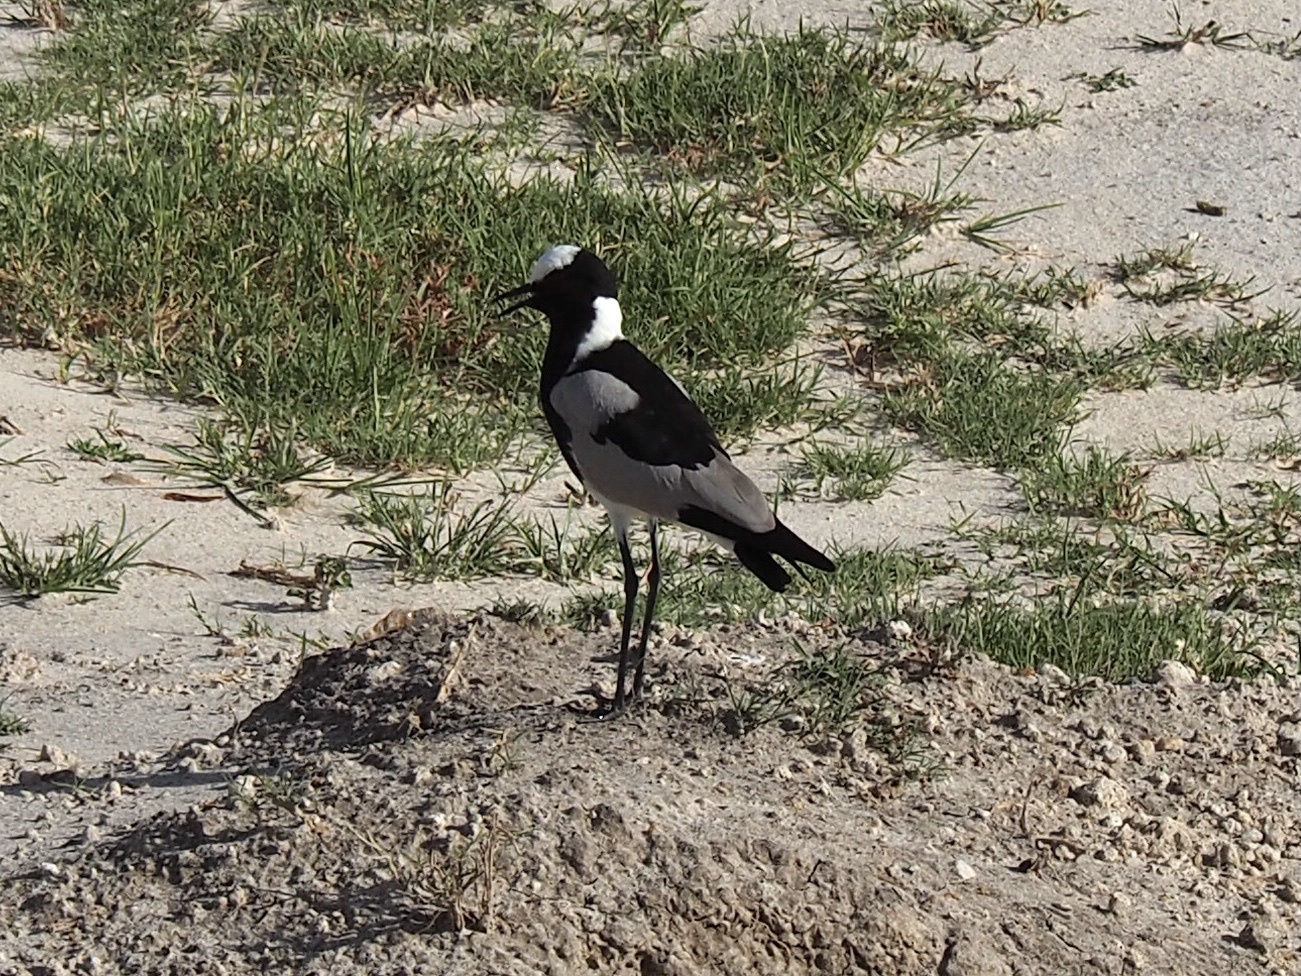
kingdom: Animalia
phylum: Chordata
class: Aves
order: Charadriiformes
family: Charadriidae
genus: Vanellus
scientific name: Vanellus armatus
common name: Blacksmith lapwing
